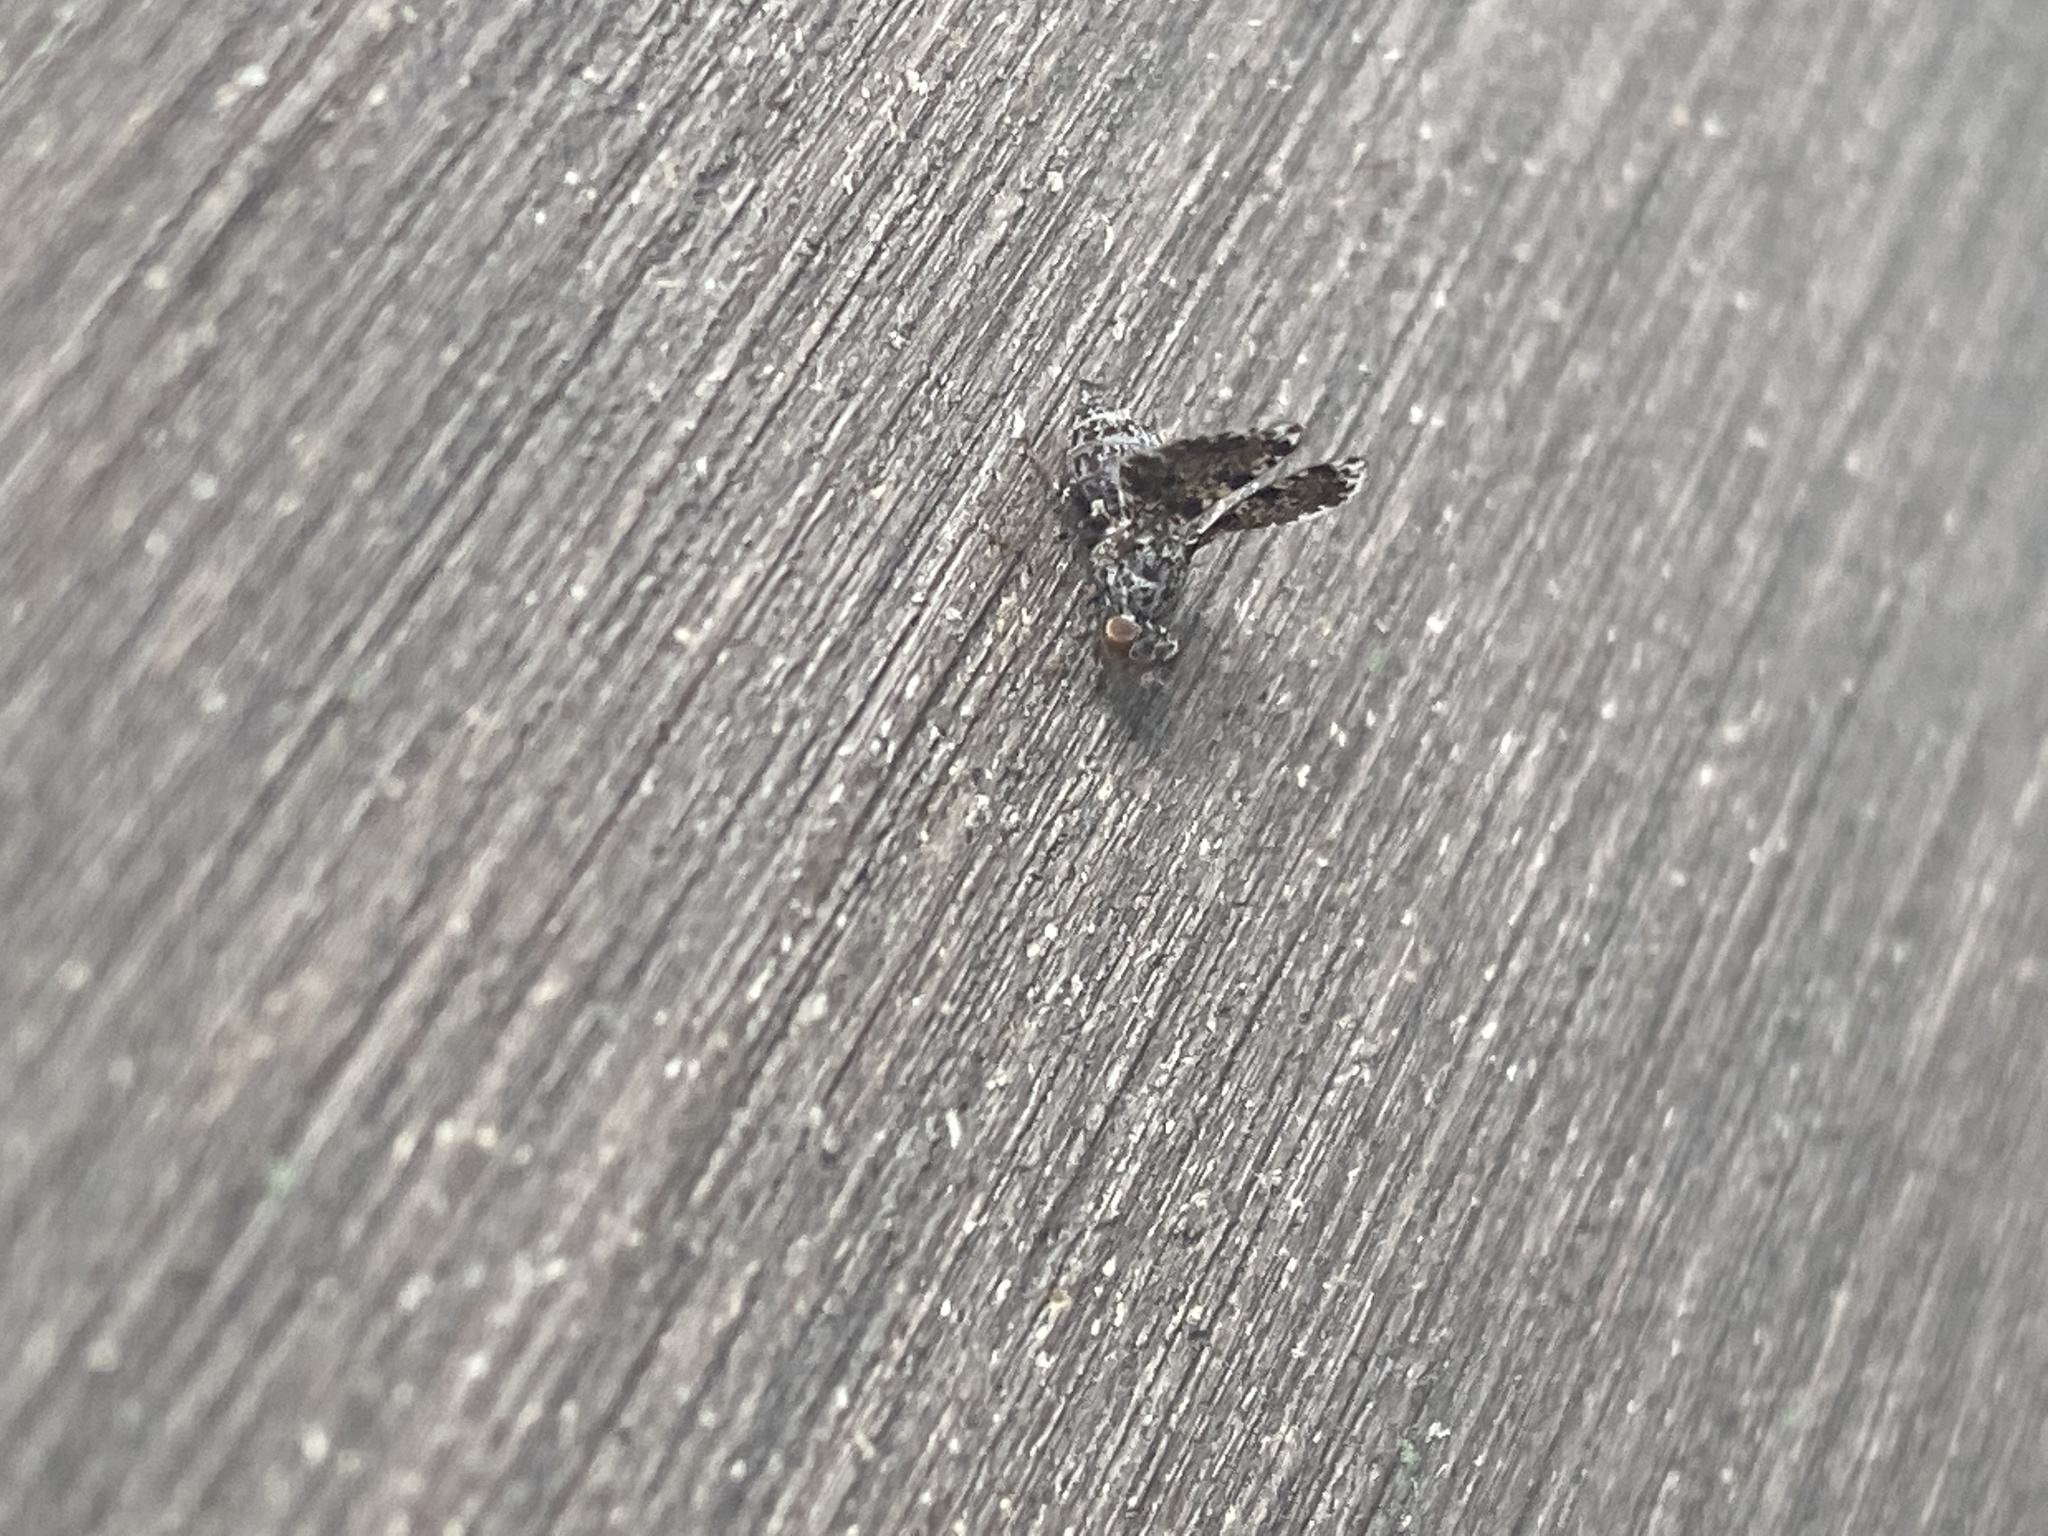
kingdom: Animalia
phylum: Arthropoda
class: Insecta
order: Diptera
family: Ulidiidae
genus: Callopistromyia
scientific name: Callopistromyia annulipes
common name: Peacock fly
